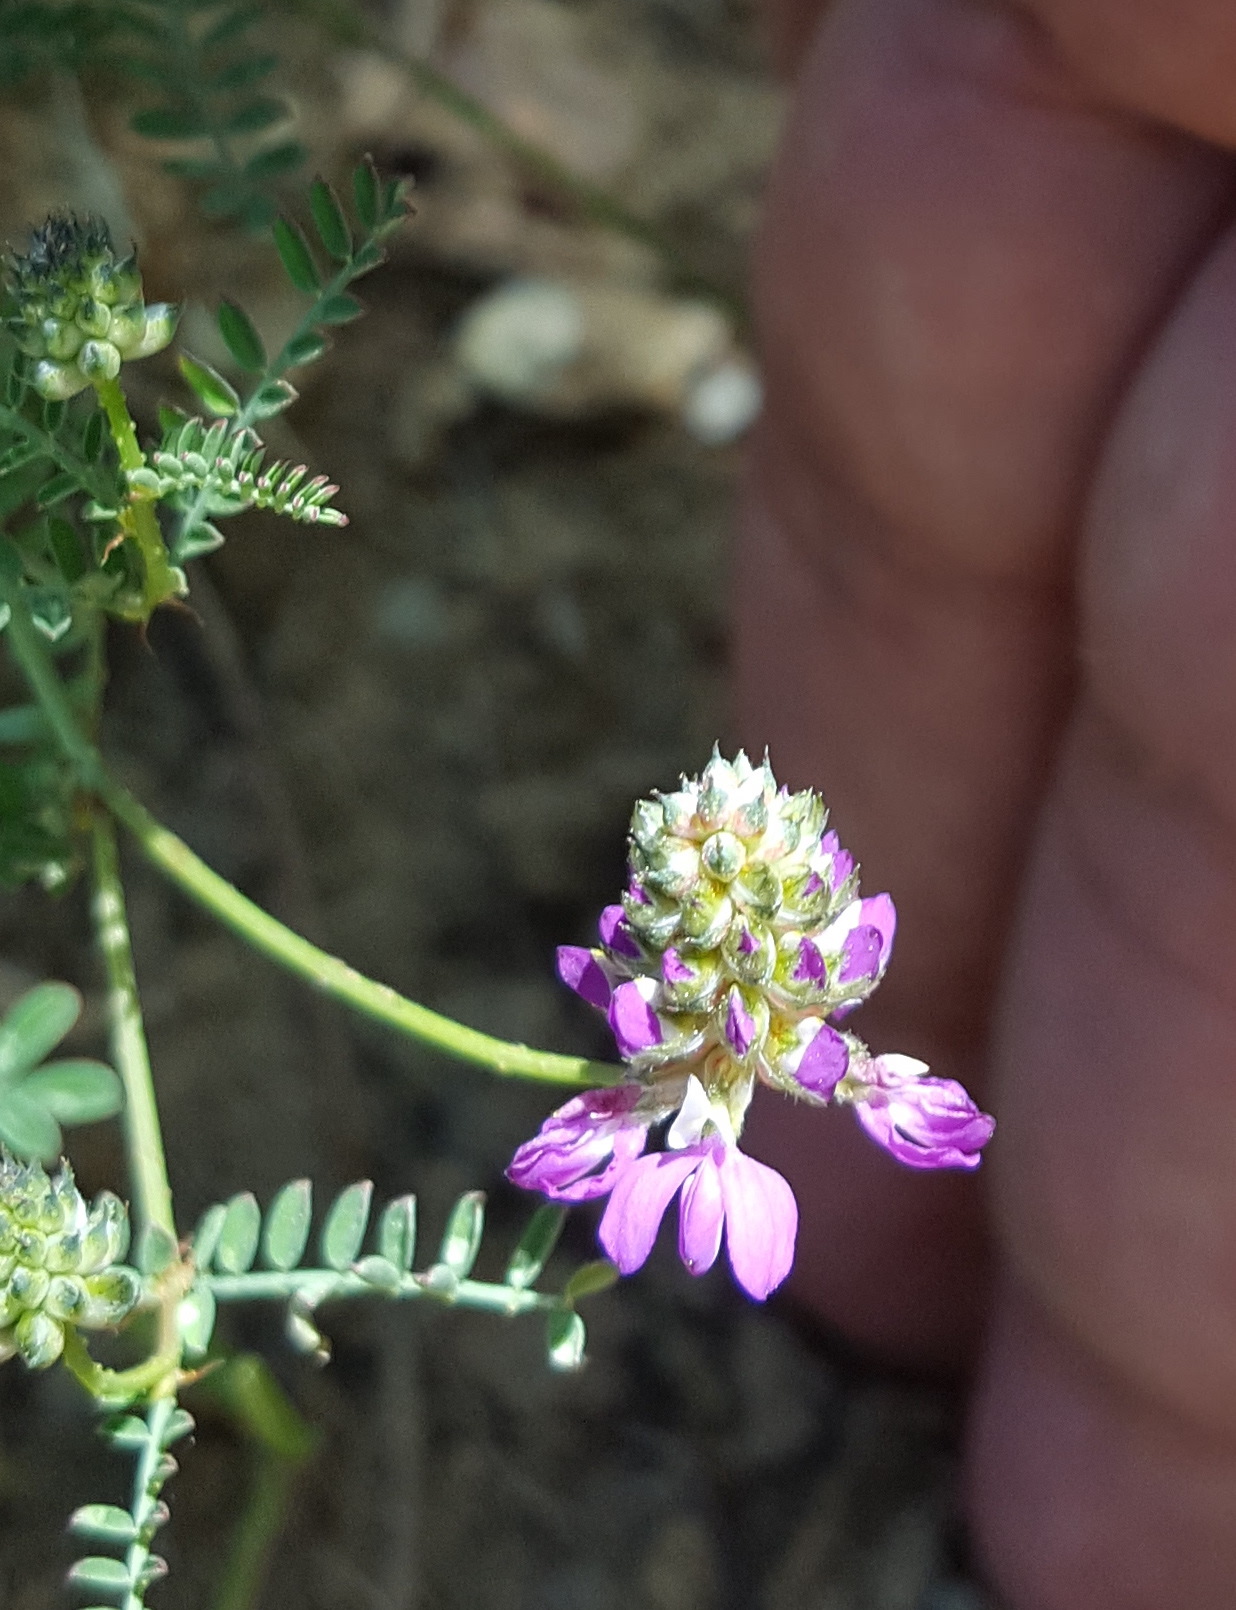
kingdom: Plantae
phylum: Tracheophyta
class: Magnoliopsida
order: Fabales
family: Fabaceae
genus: Dalea
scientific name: Dalea foliolosa
